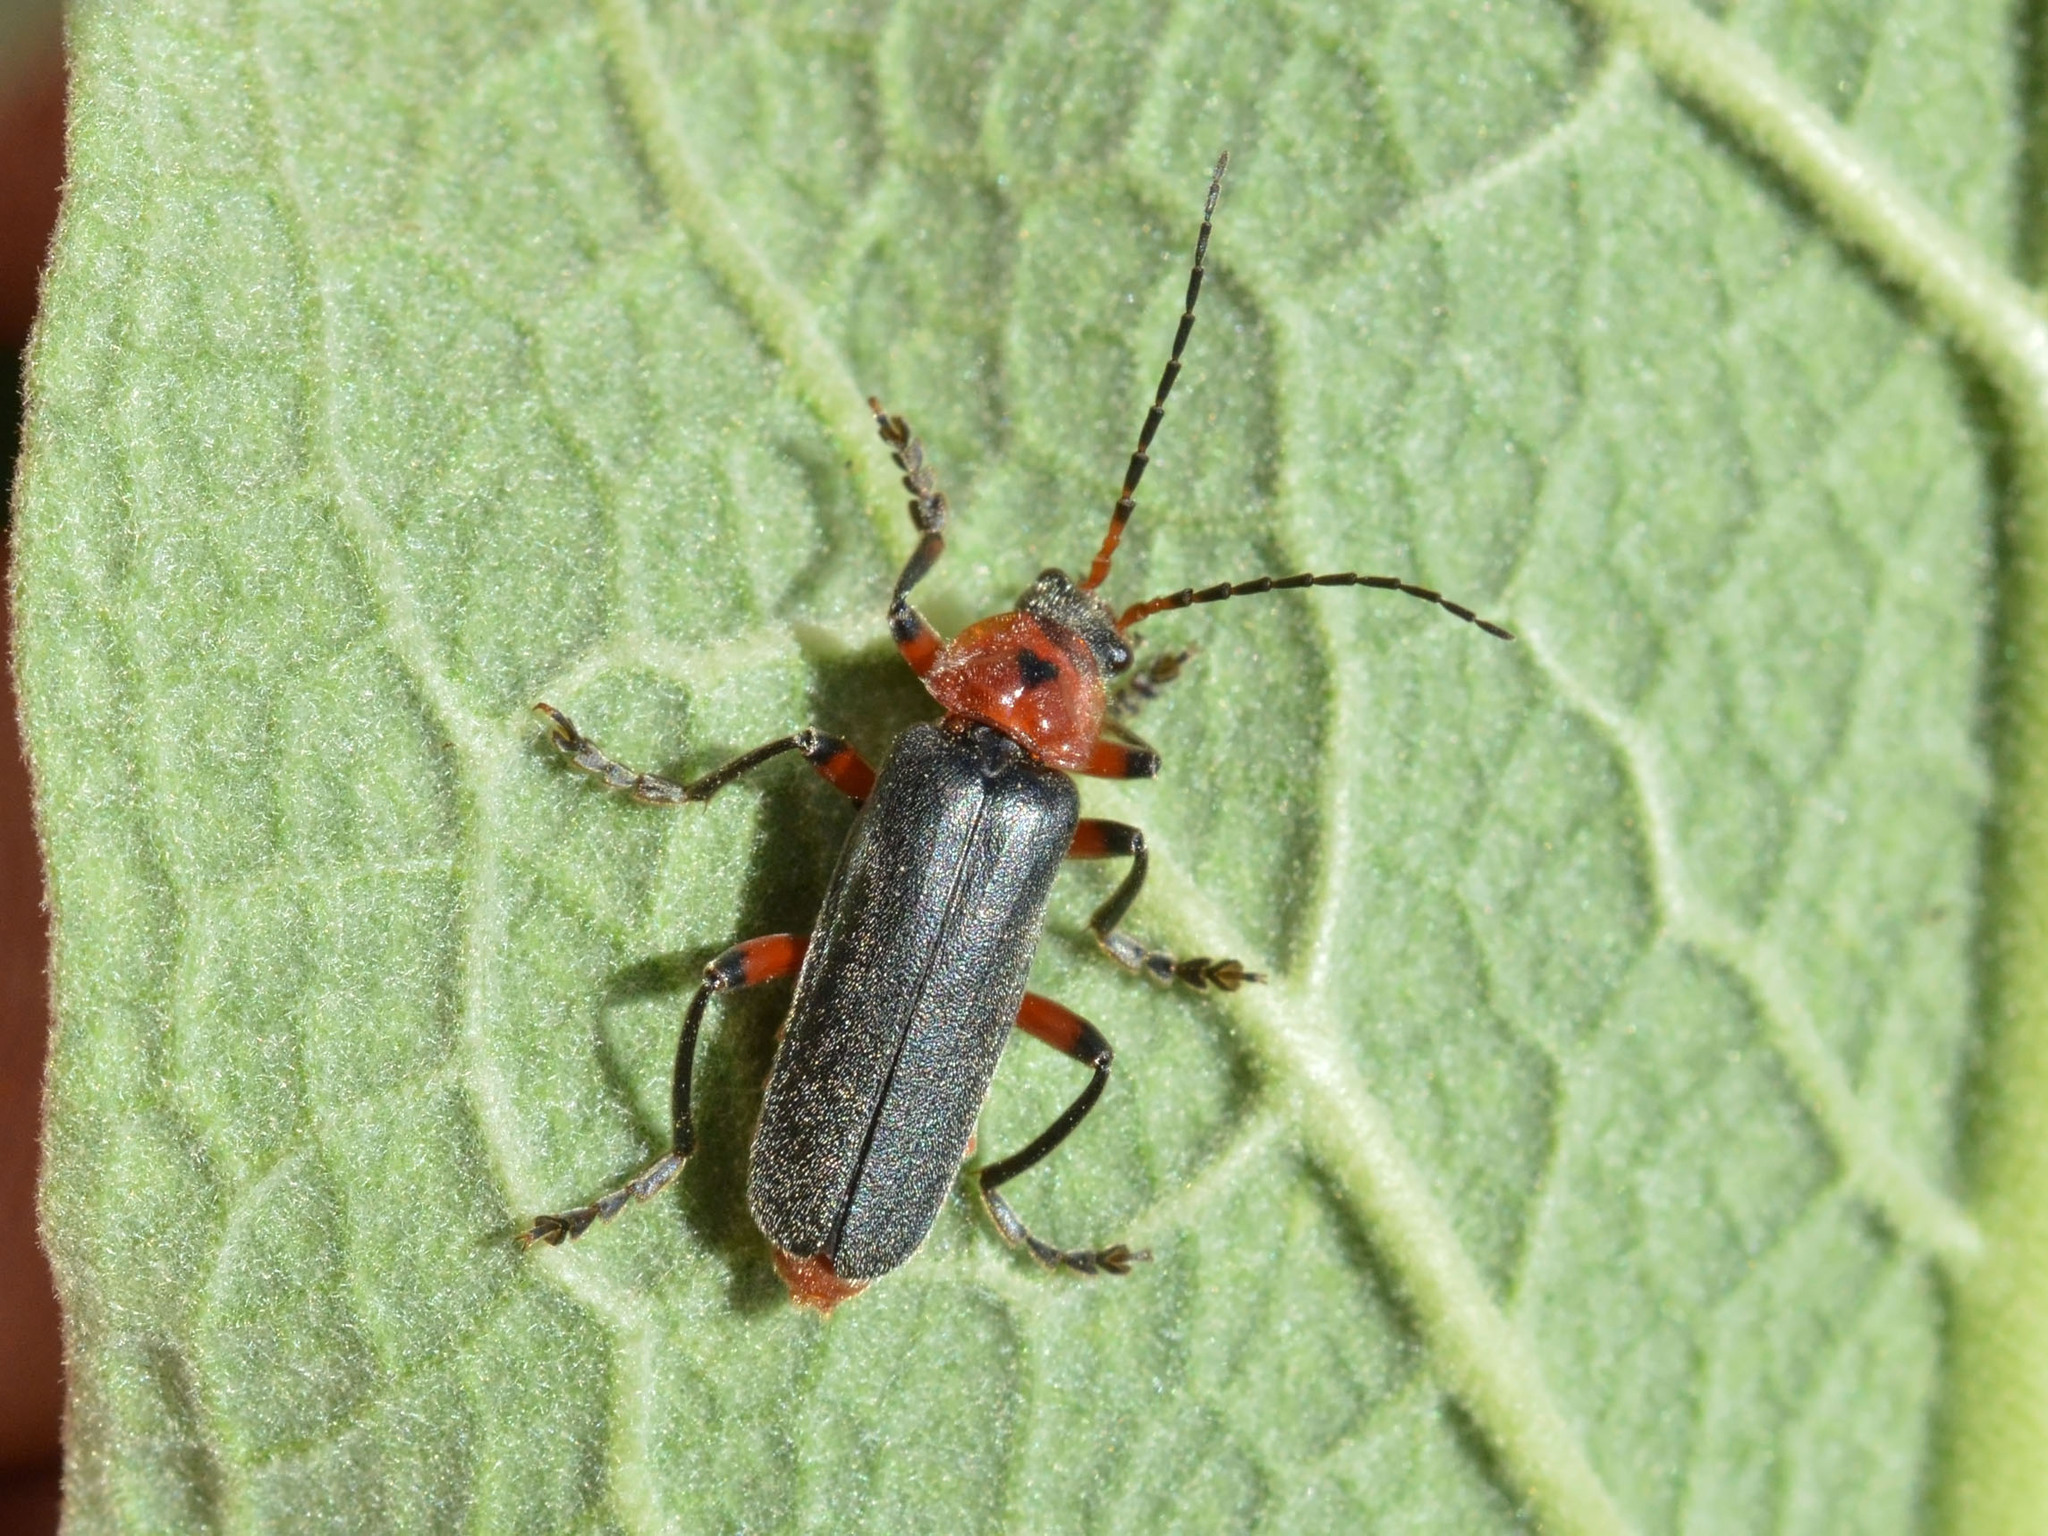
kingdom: Animalia
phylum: Arthropoda
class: Insecta
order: Coleoptera
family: Cantharidae
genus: Cantharis
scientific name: Cantharis rustica
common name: Soldier beetle
